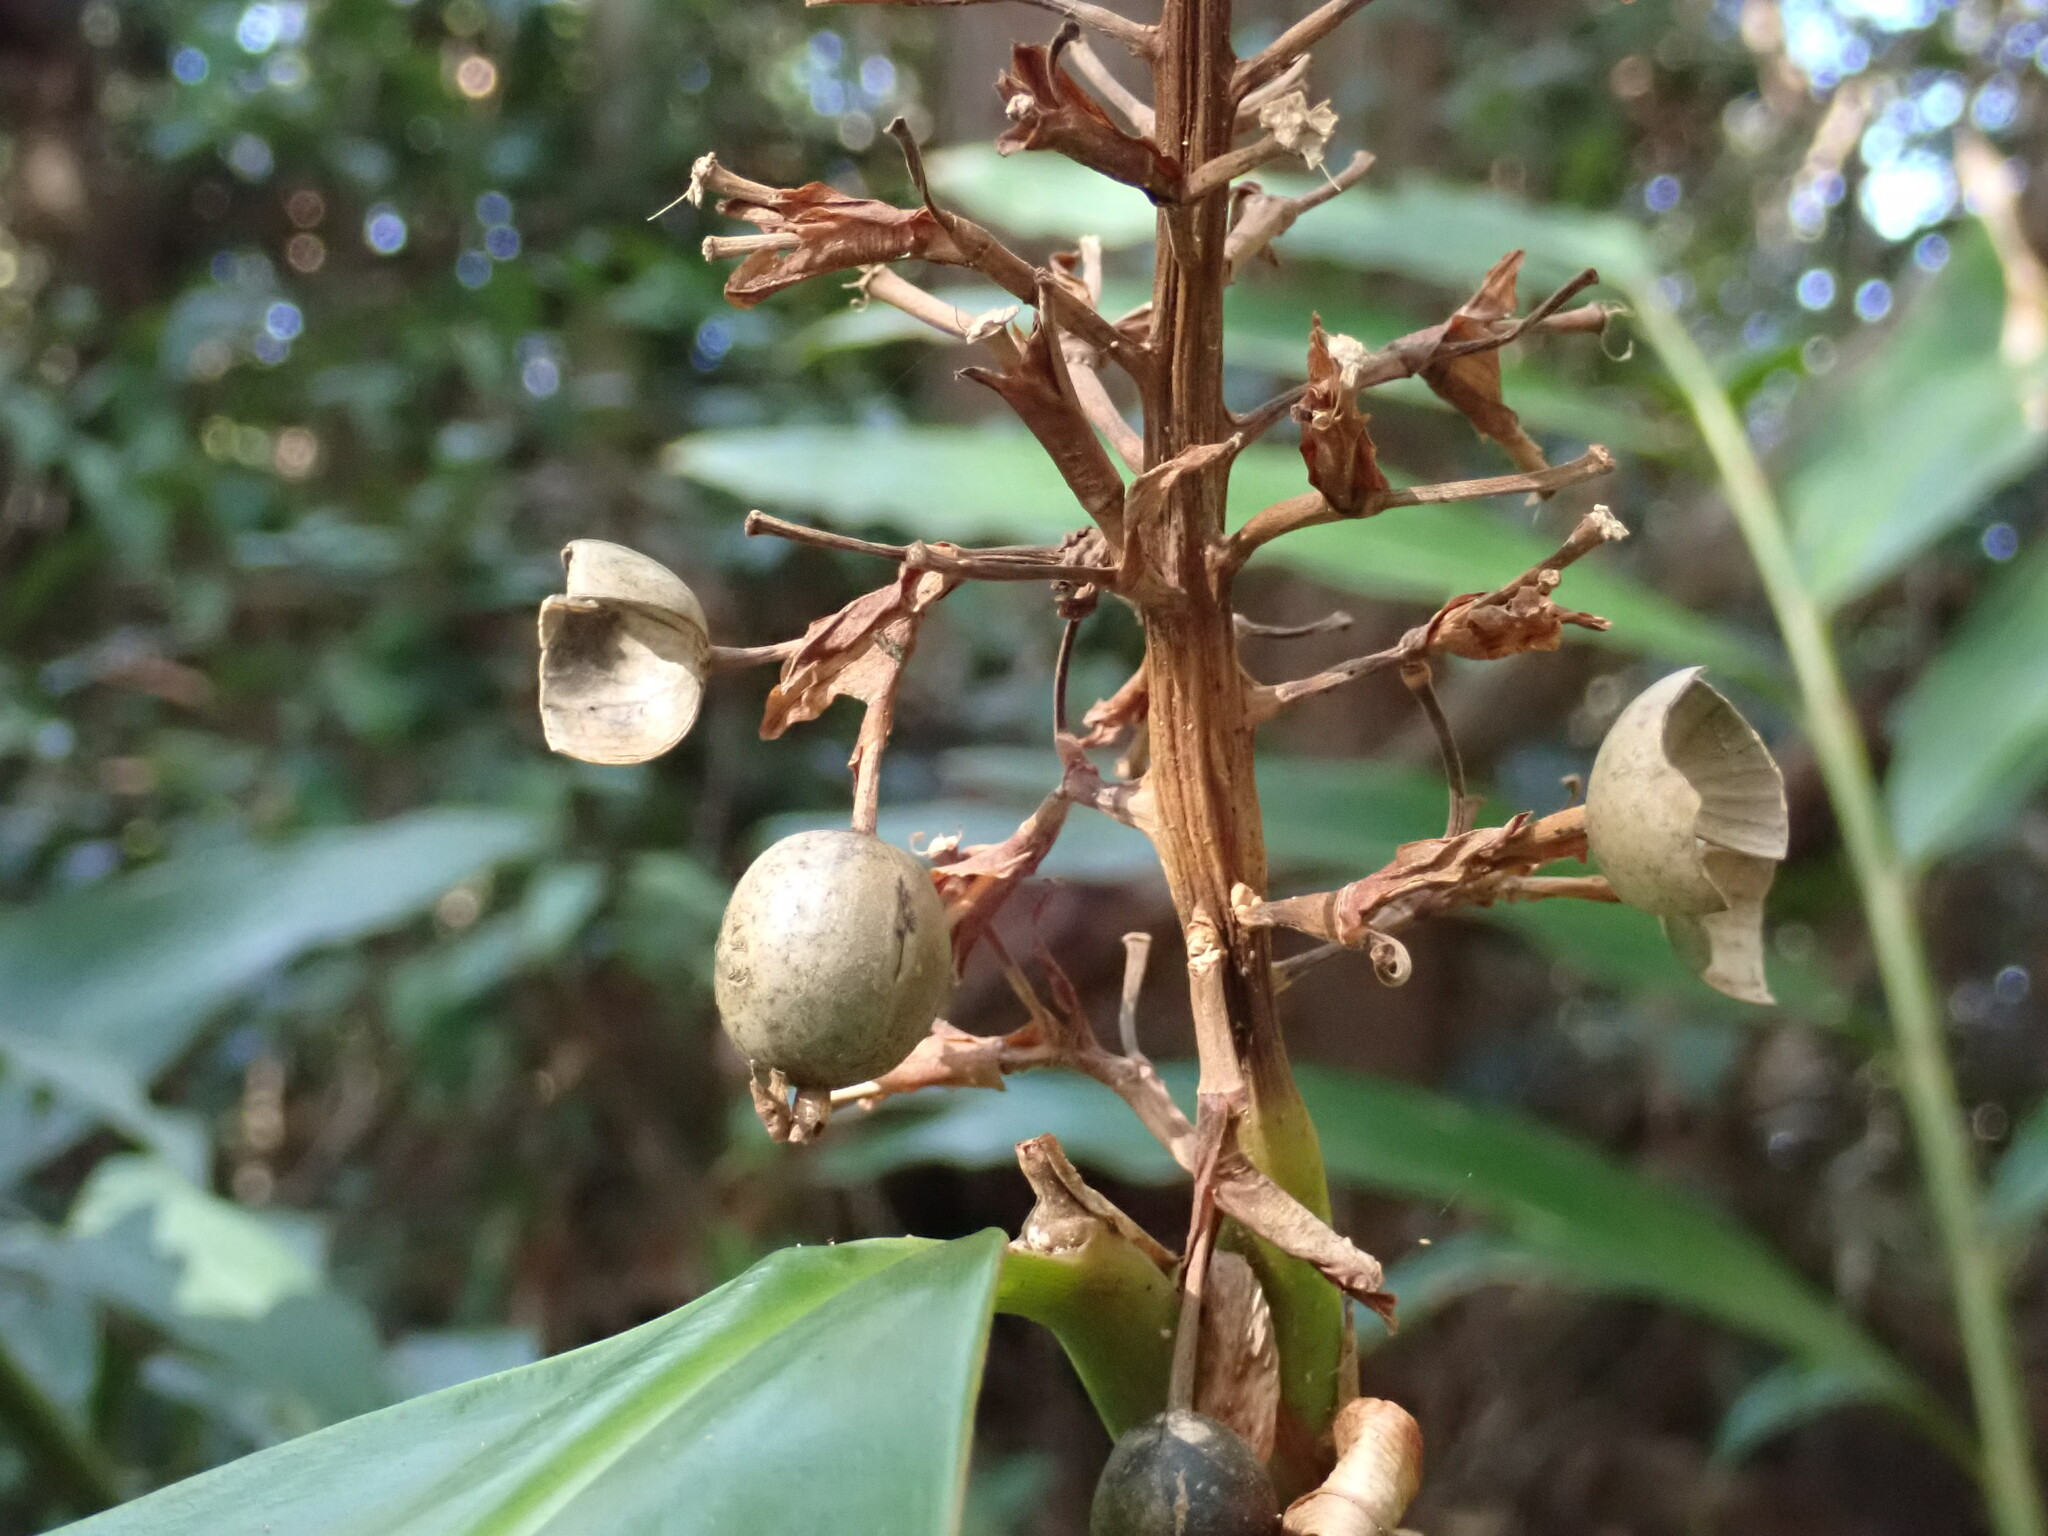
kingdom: Plantae
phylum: Tracheophyta
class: Liliopsida
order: Zingiberales
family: Zingiberaceae
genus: Alpinia
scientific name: Alpinia caerulea
